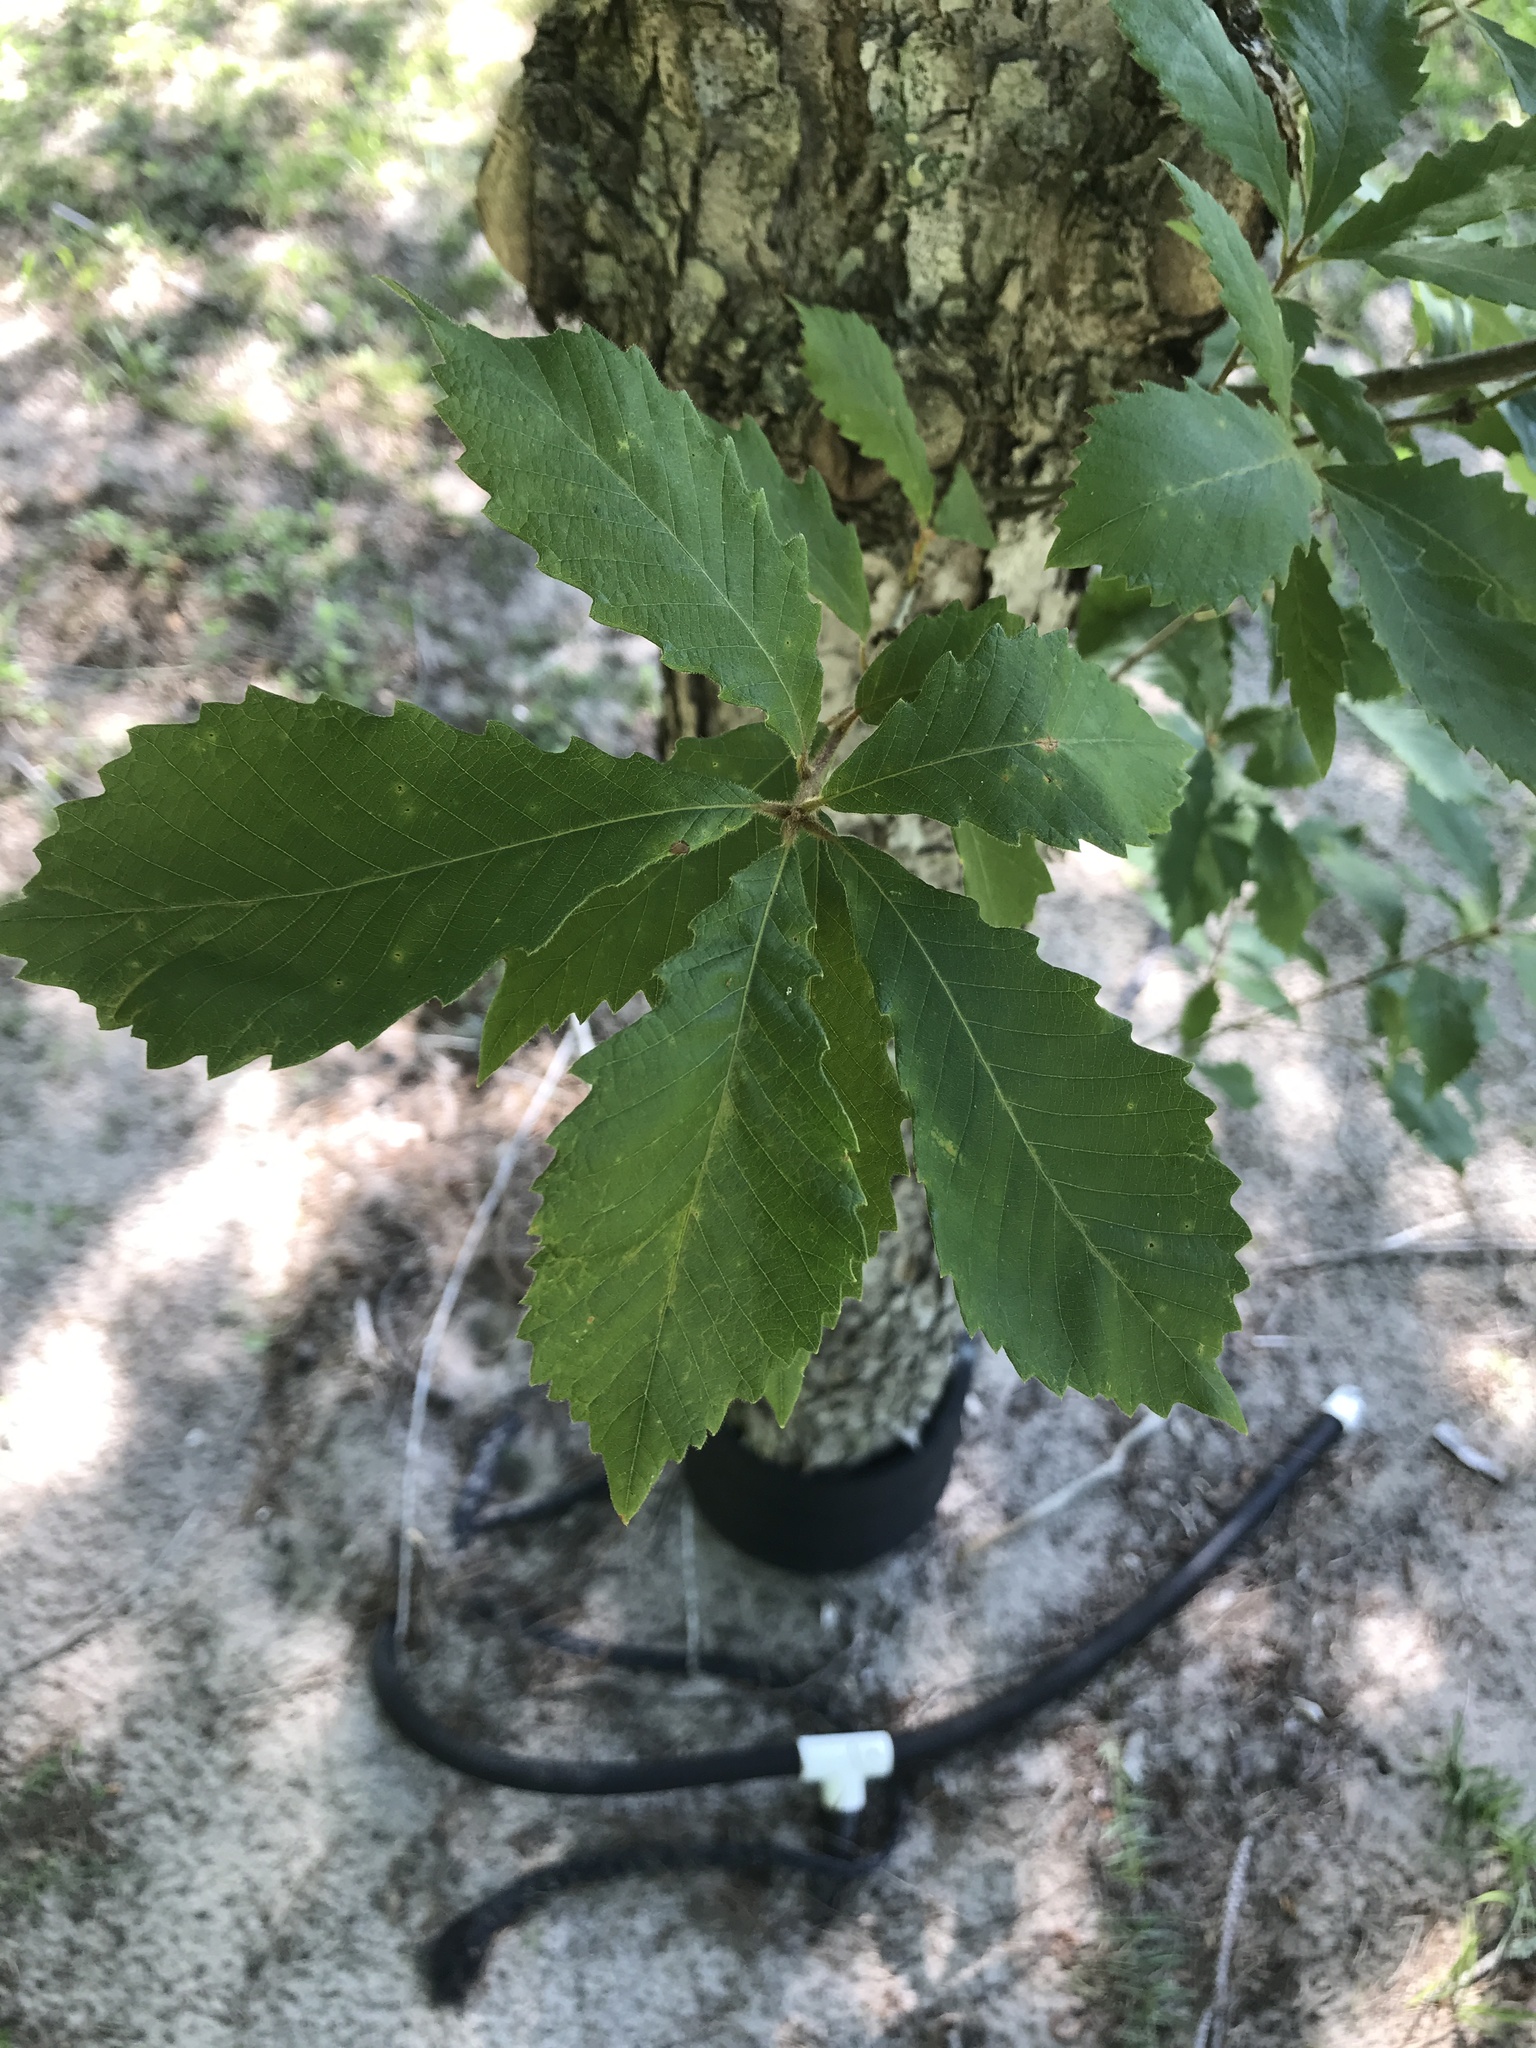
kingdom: Plantae
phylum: Tracheophyta
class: Magnoliopsida
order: Fagales
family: Fagaceae
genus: Quercus
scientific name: Quercus michauxii
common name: Swamp chestnut oak
